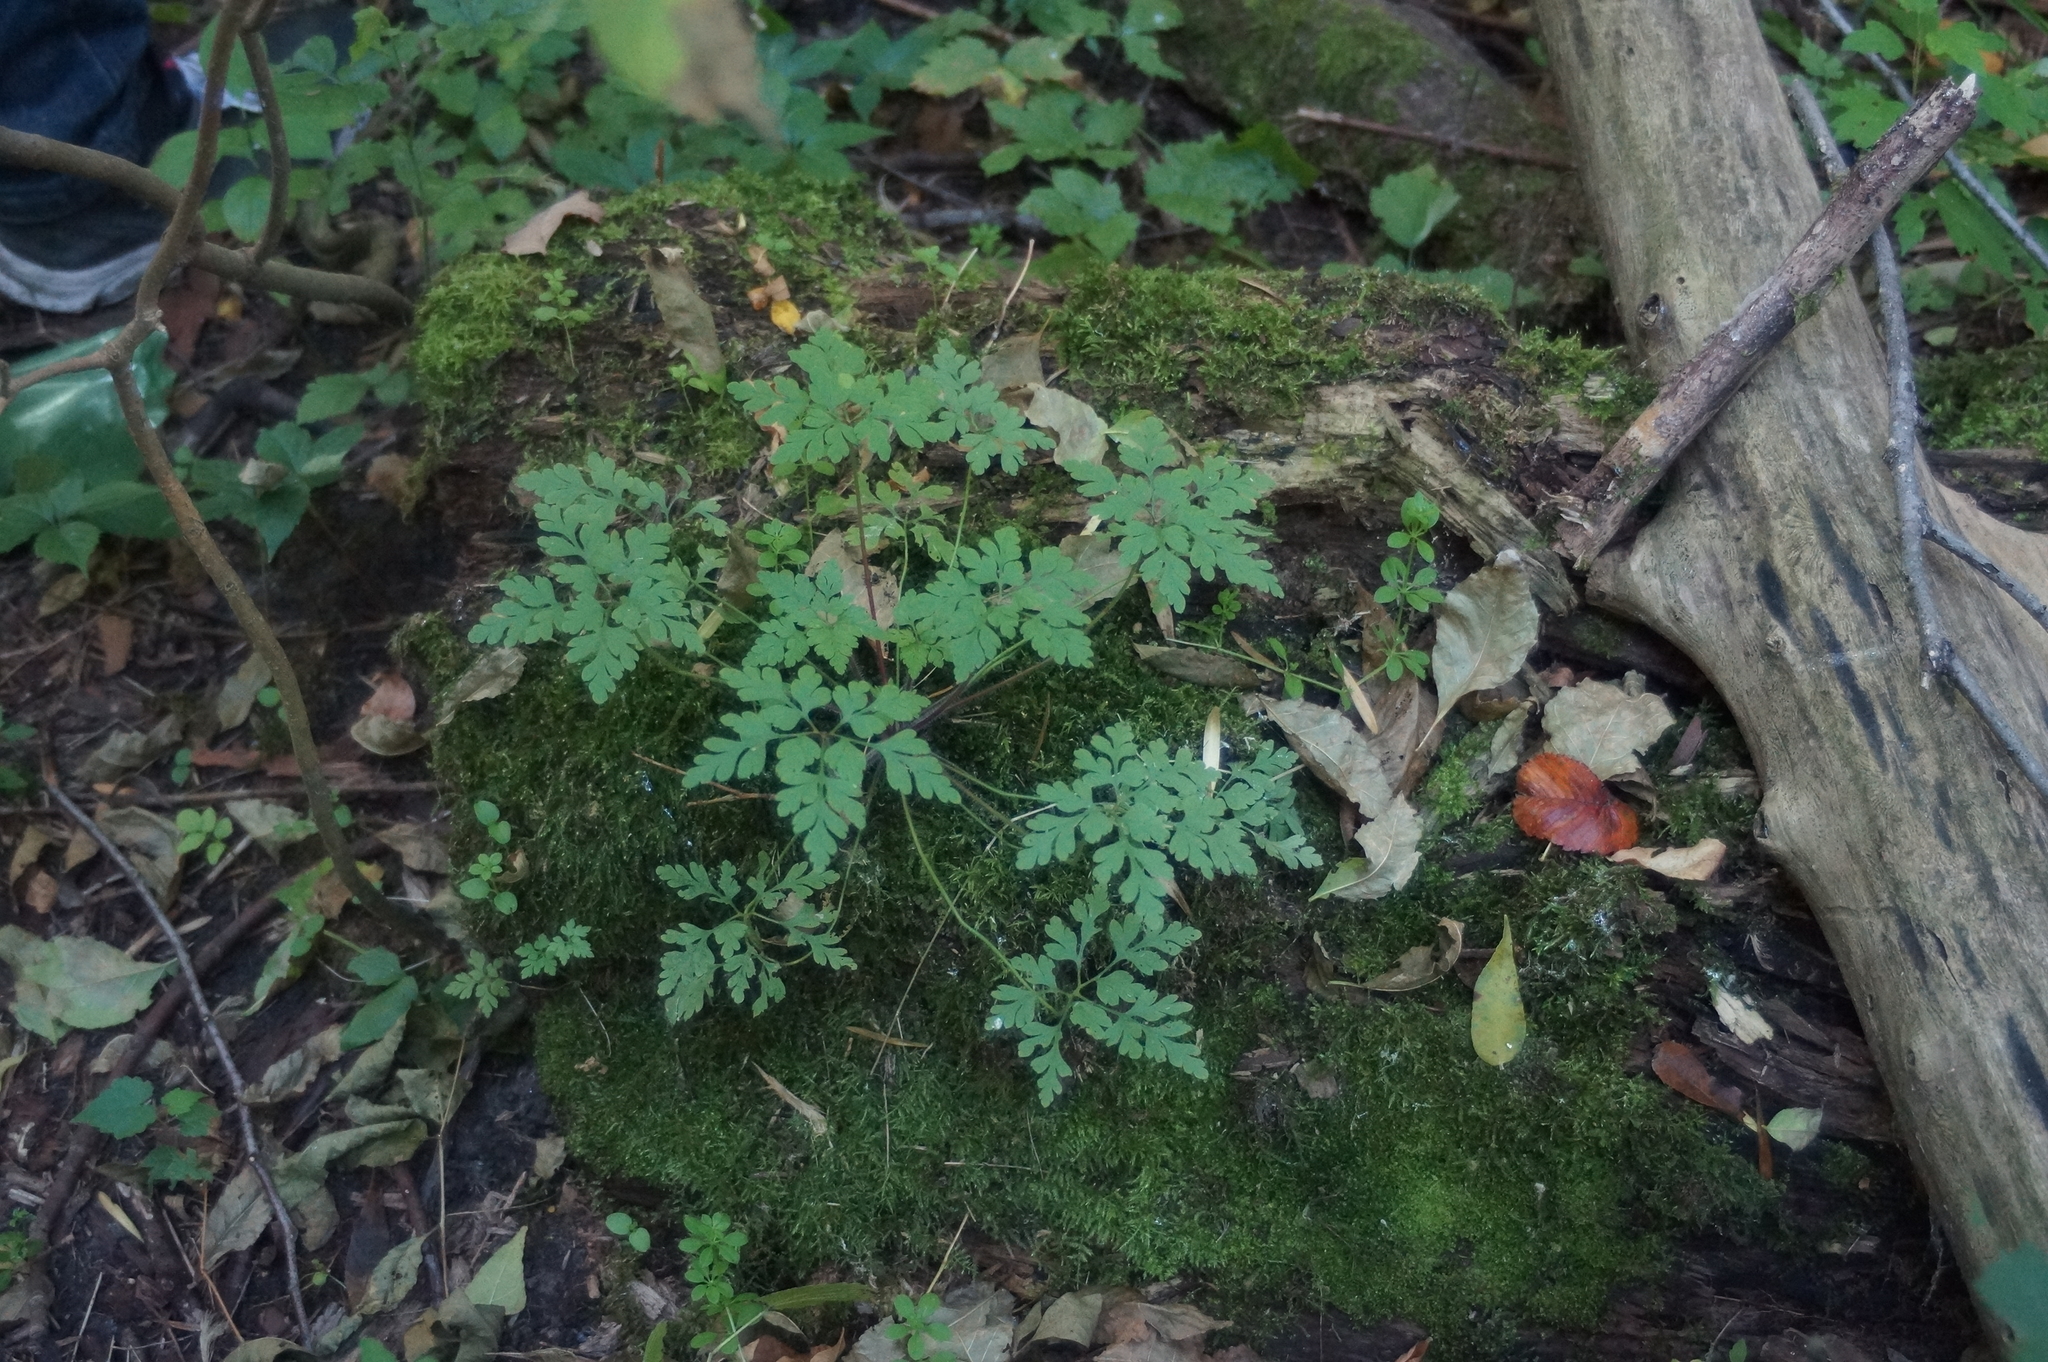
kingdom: Plantae
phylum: Tracheophyta
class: Magnoliopsida
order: Geraniales
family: Geraniaceae
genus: Geranium
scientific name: Geranium robertianum
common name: Herb-robert
